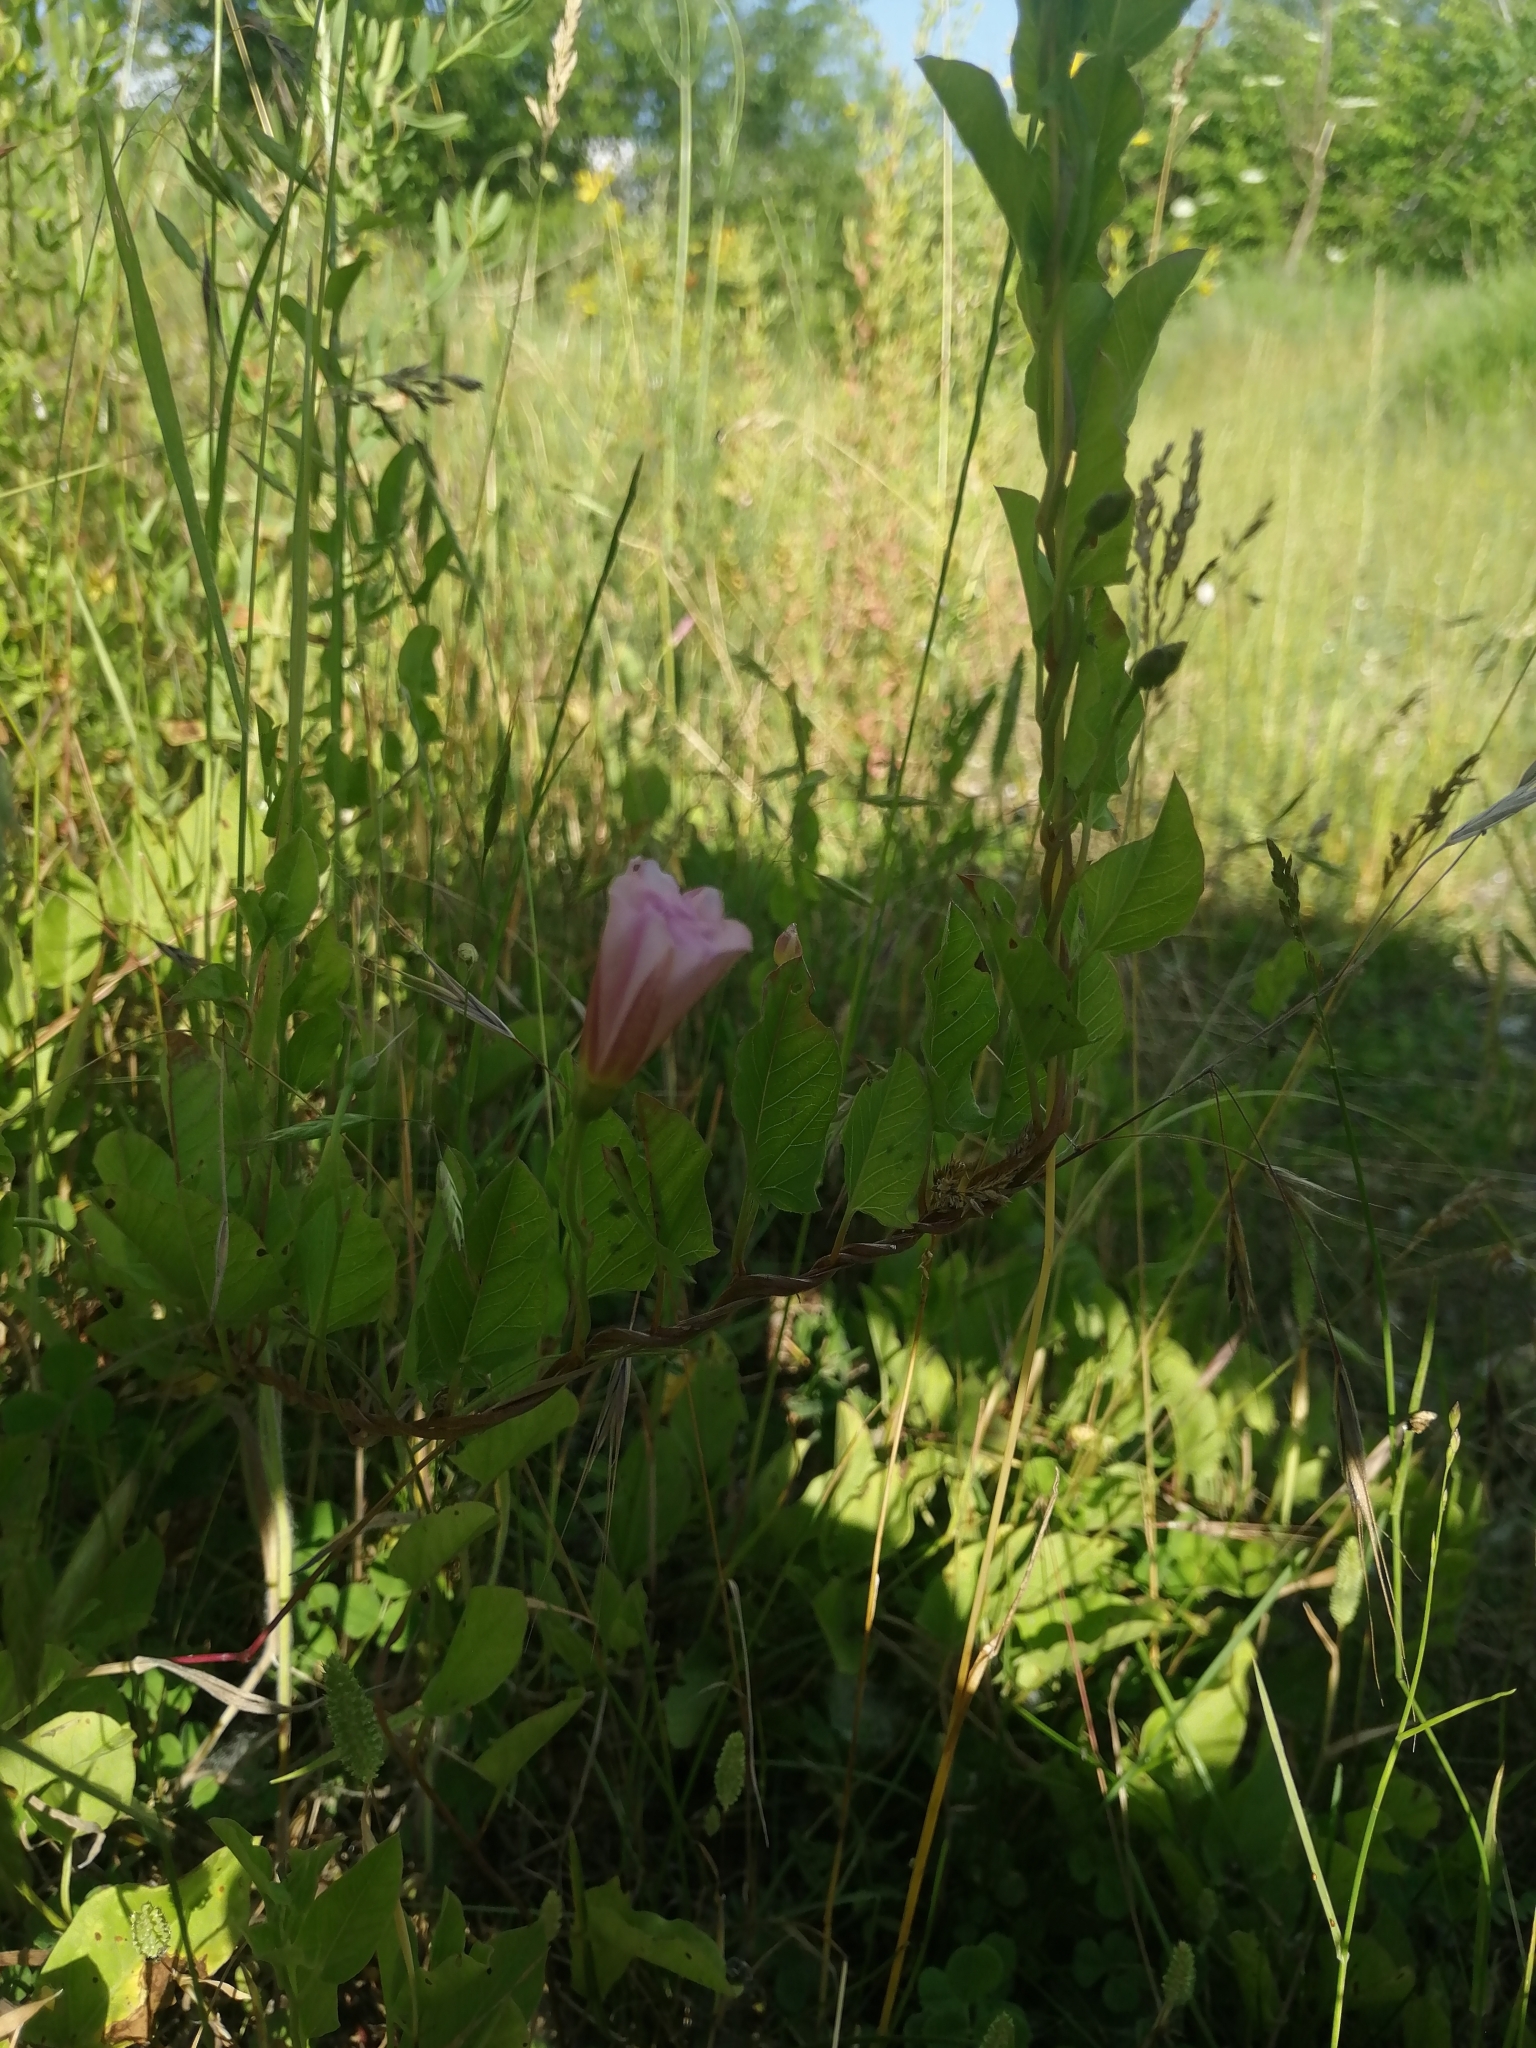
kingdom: Plantae
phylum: Tracheophyta
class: Magnoliopsida
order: Solanales
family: Convolvulaceae
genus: Convolvulus
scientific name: Convolvulus arvensis
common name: Field bindweed
